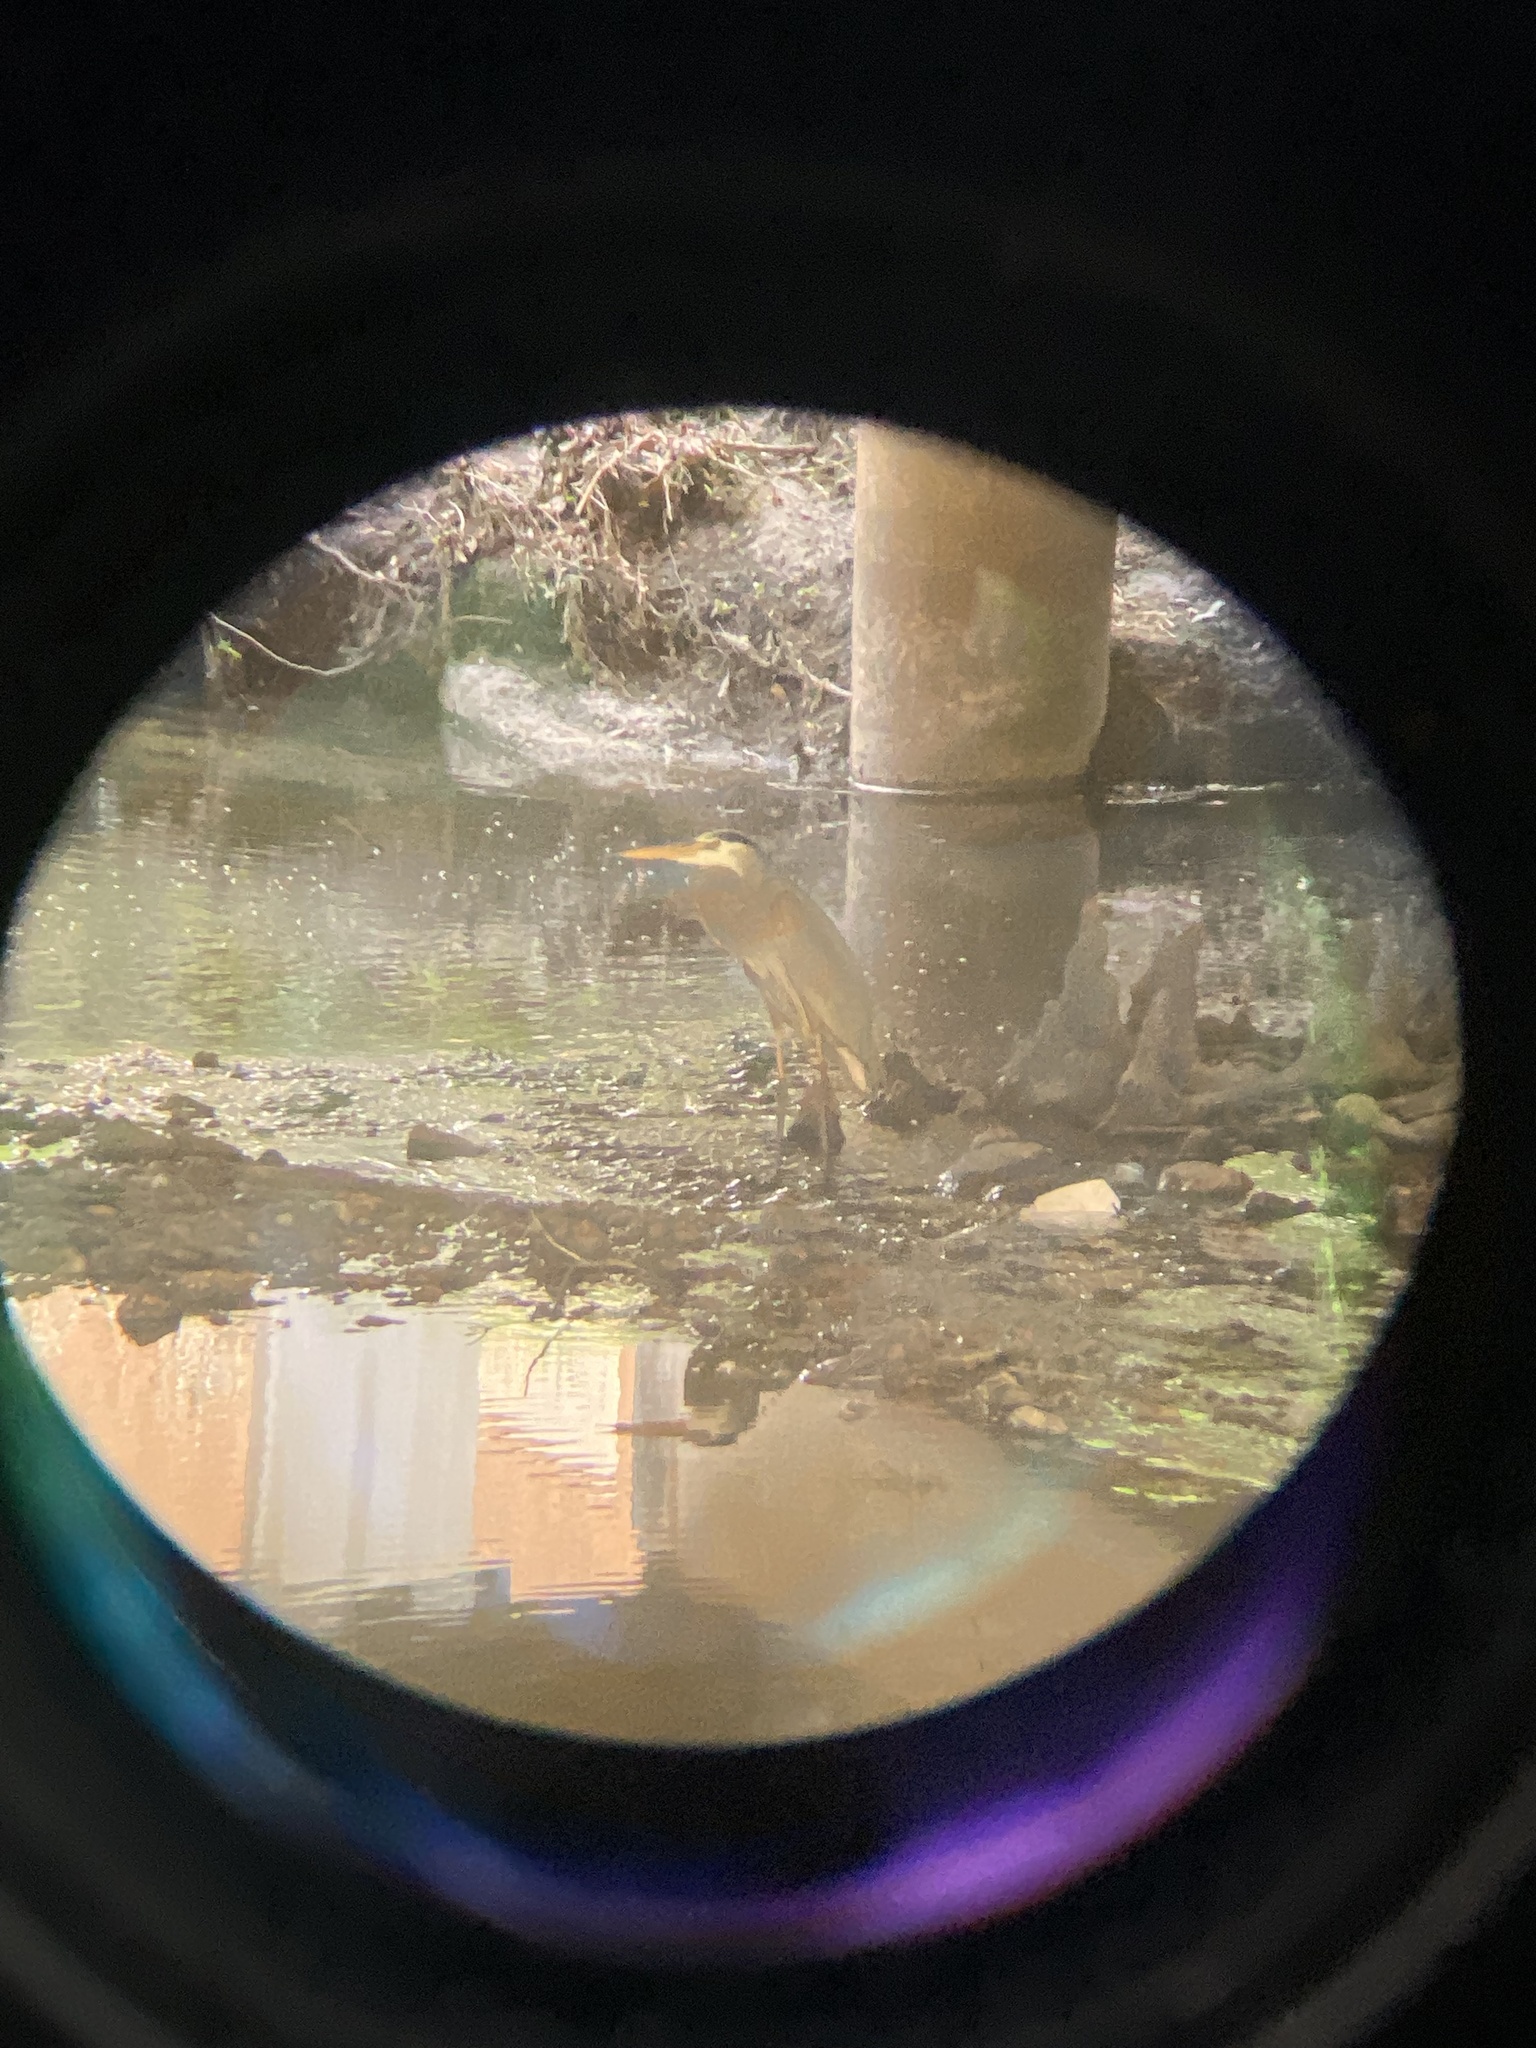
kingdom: Animalia
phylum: Chordata
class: Aves
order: Pelecaniformes
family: Ardeidae
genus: Ardea
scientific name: Ardea herodias
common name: Great blue heron
